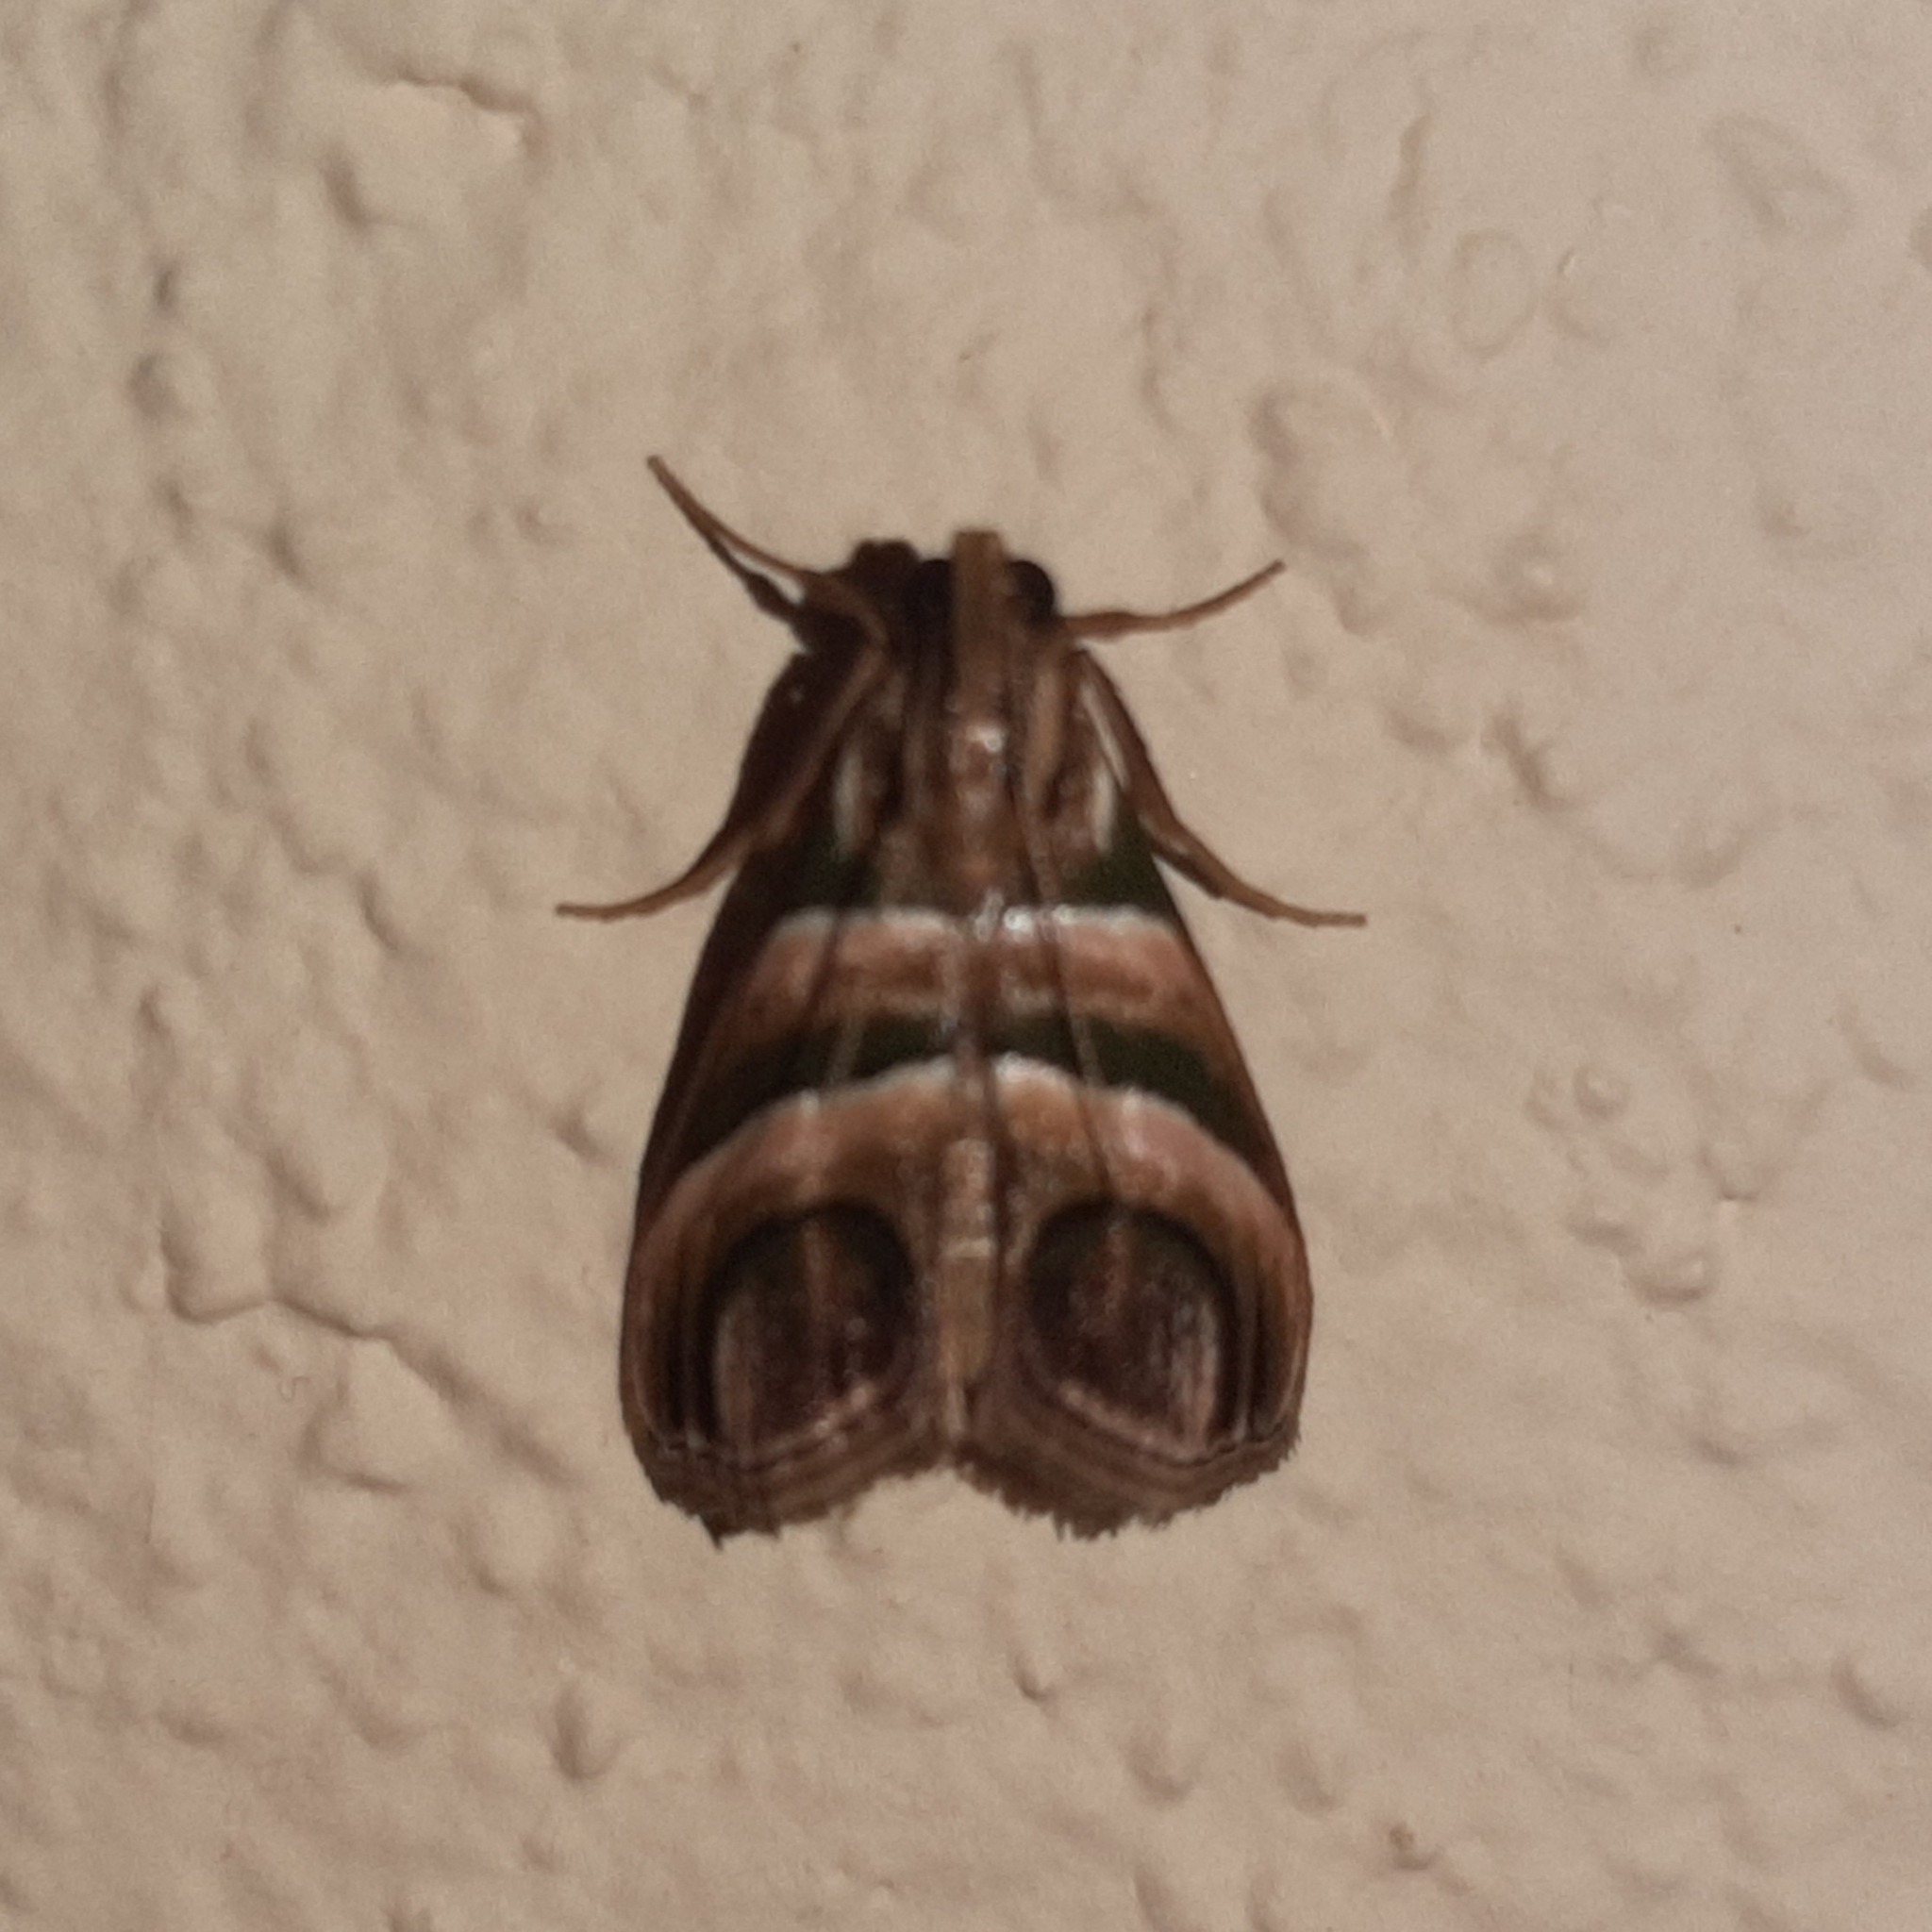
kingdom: Animalia
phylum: Arthropoda
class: Insecta
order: Lepidoptera
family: Pyralidae
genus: Incarcha
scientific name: Incarcha argentilinea
